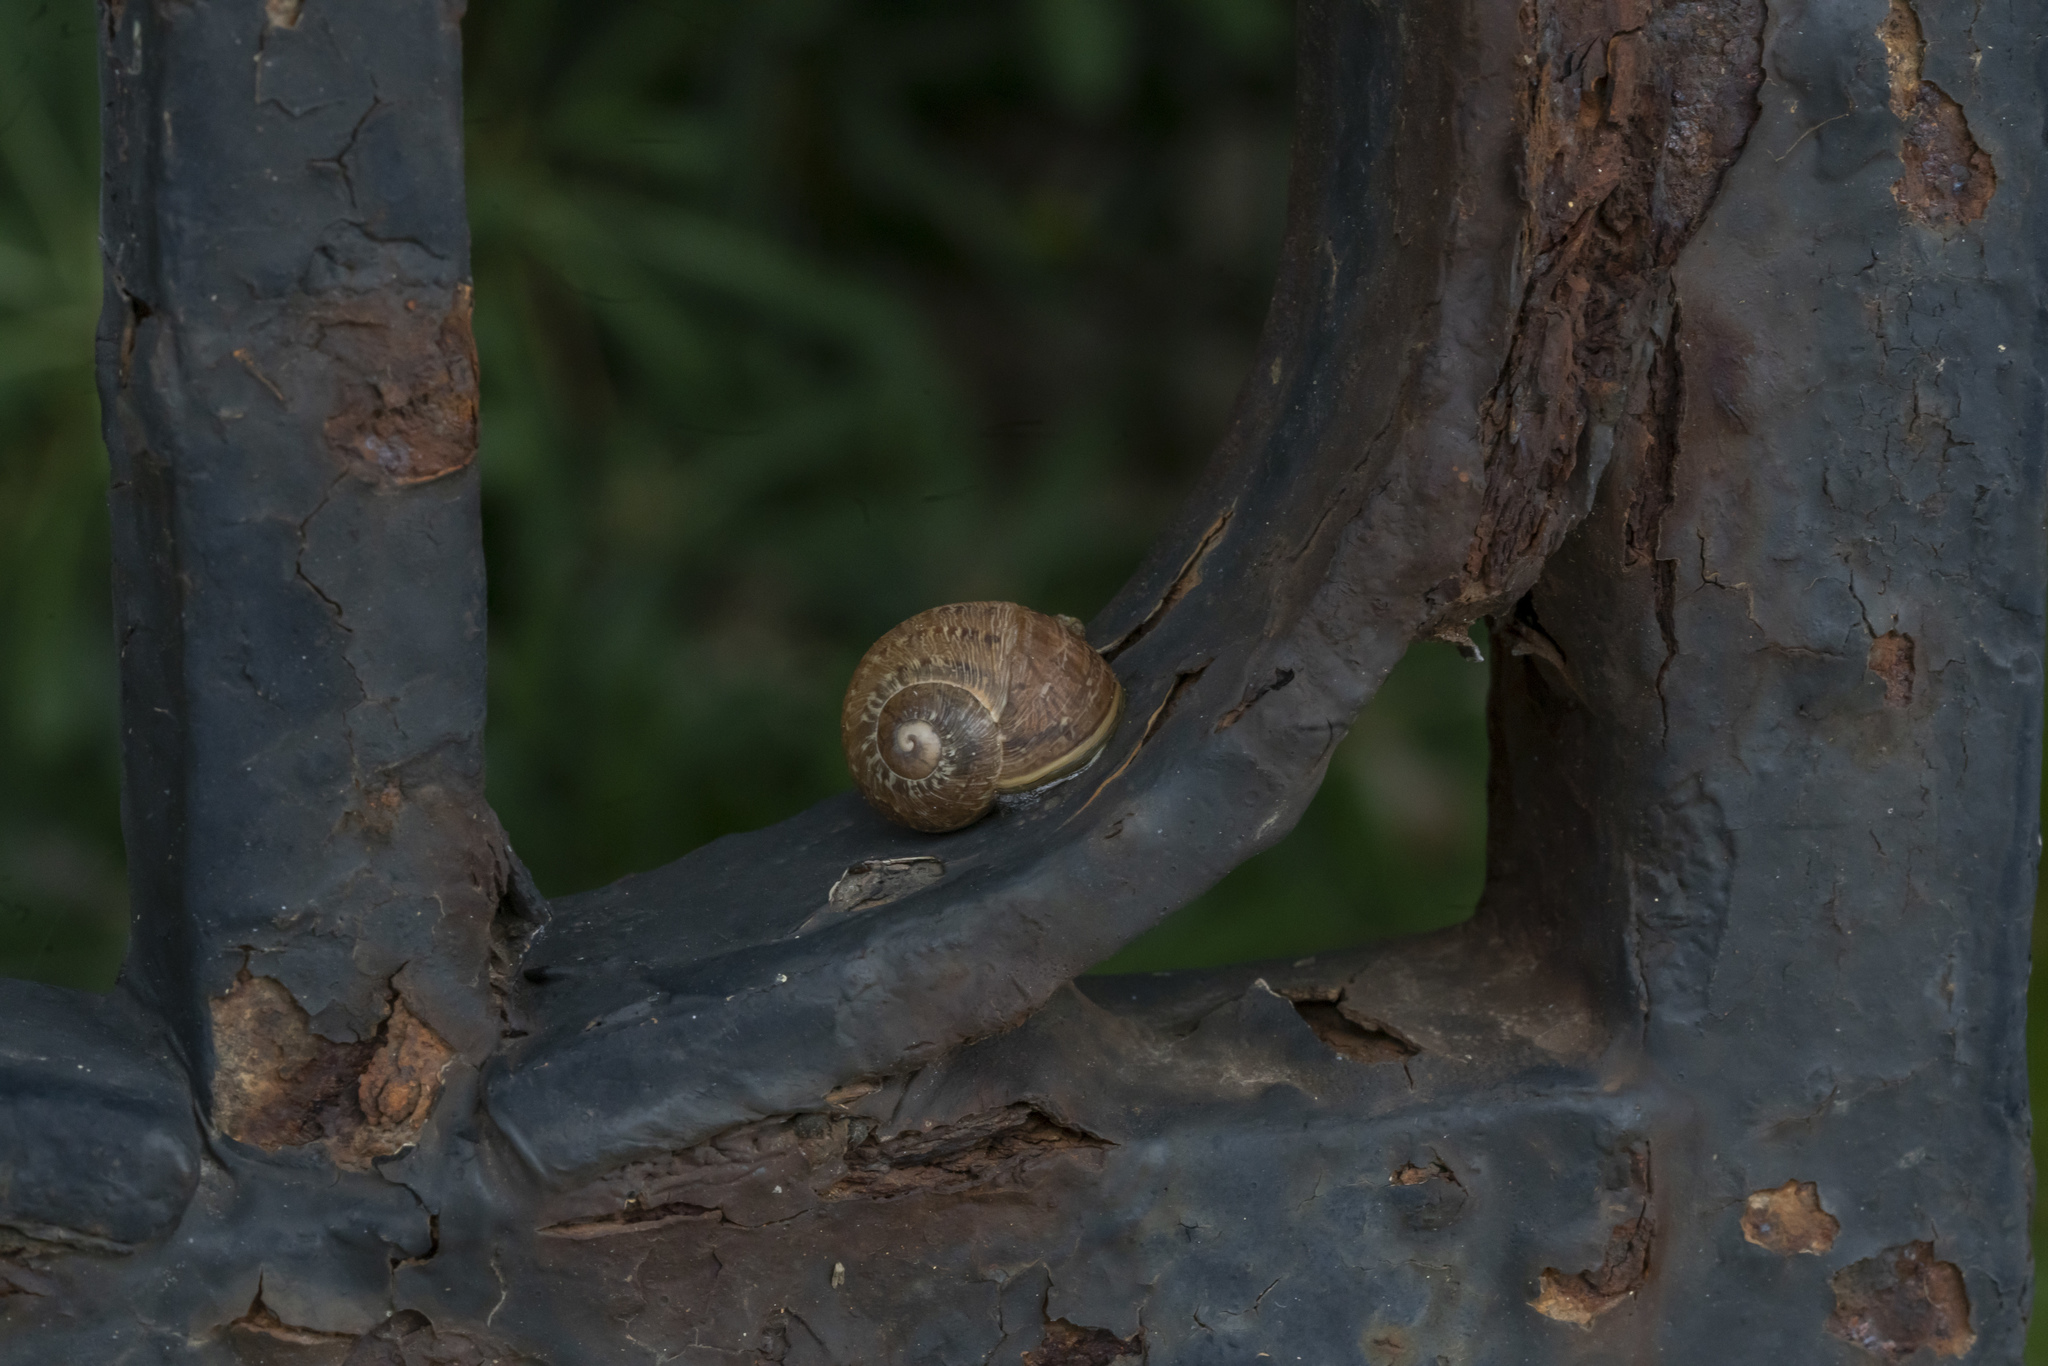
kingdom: Animalia
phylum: Mollusca
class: Gastropoda
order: Stylommatophora
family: Helicidae
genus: Cornu
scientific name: Cornu aspersum
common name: Brown garden snail
